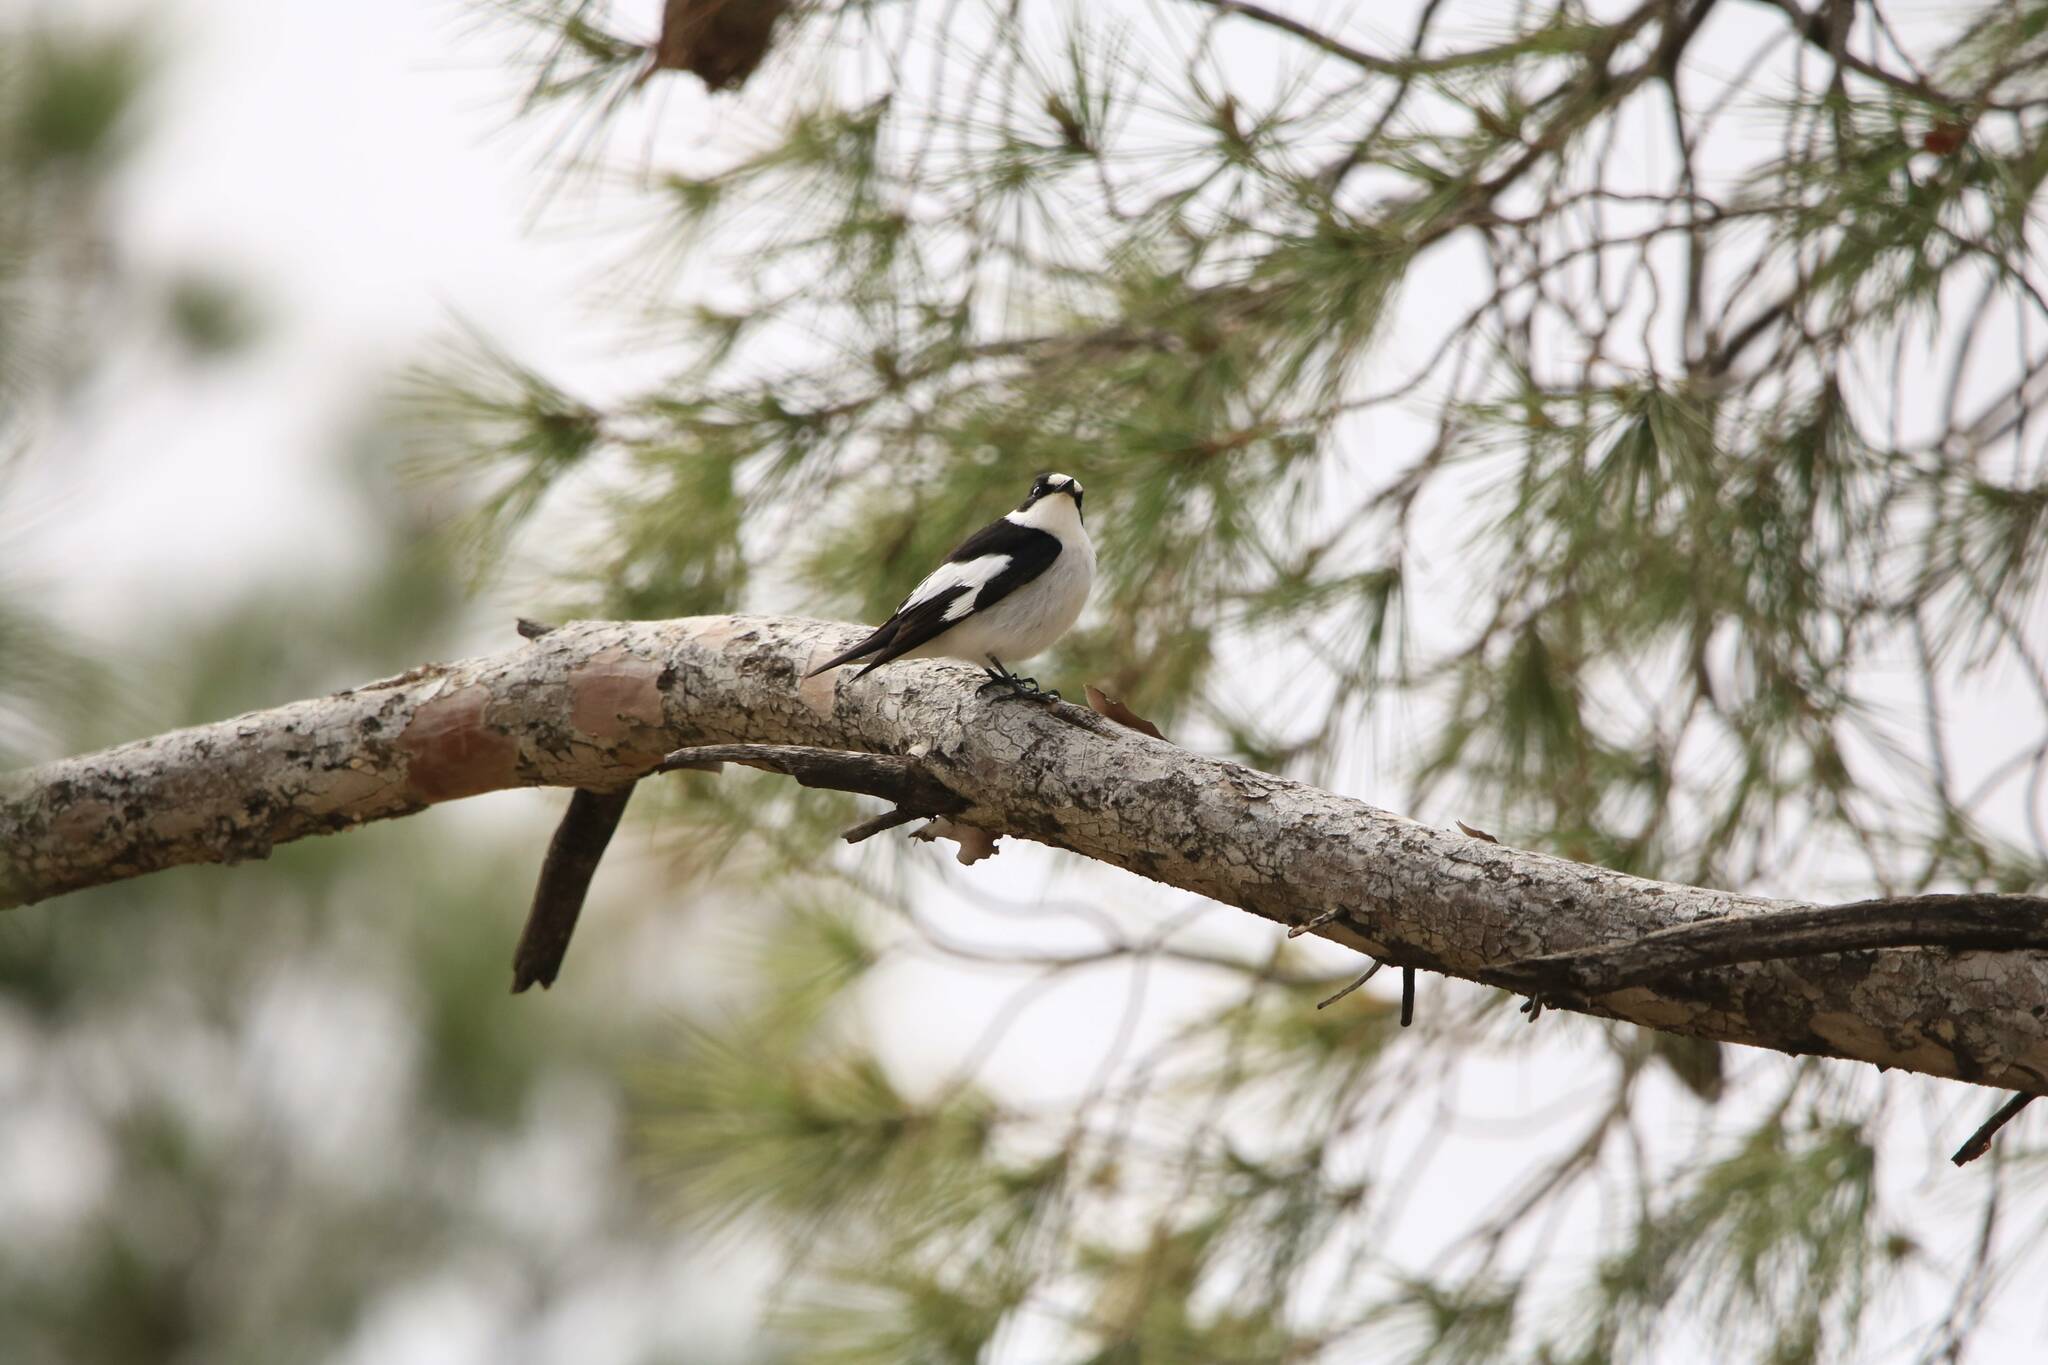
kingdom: Animalia
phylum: Chordata
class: Aves
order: Passeriformes
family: Muscicapidae
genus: Ficedula
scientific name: Ficedula albicollis
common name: Collared flycatcher
